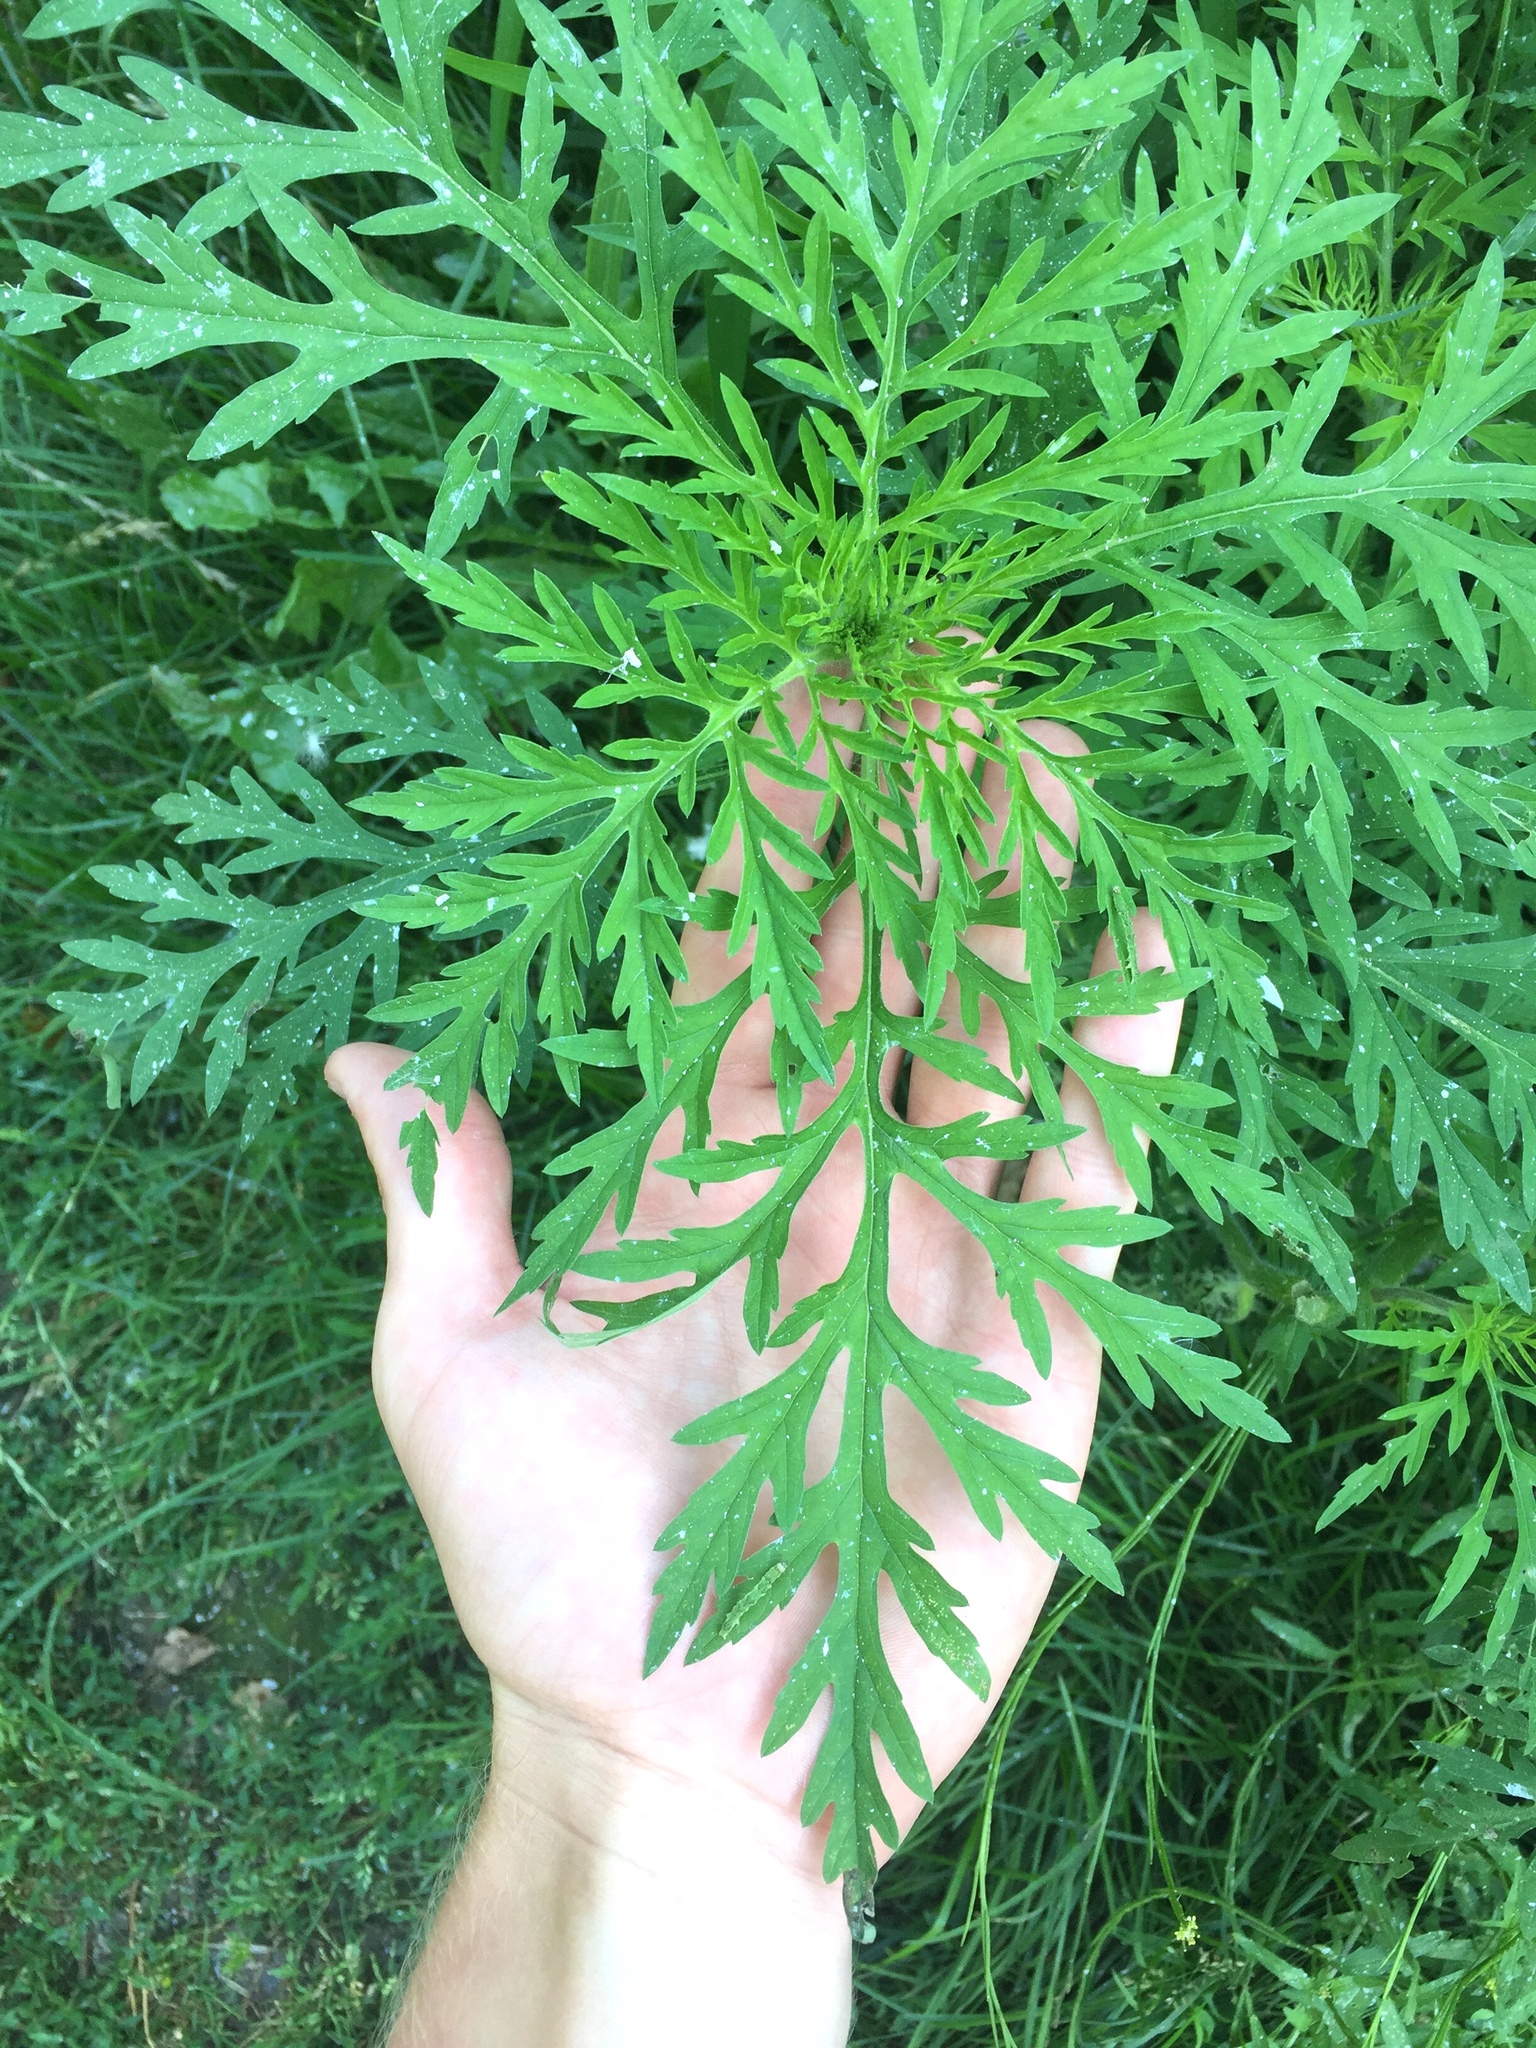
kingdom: Plantae
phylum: Tracheophyta
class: Magnoliopsida
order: Asterales
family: Asteraceae
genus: Ambrosia
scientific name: Ambrosia artemisiifolia
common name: Annual ragweed
